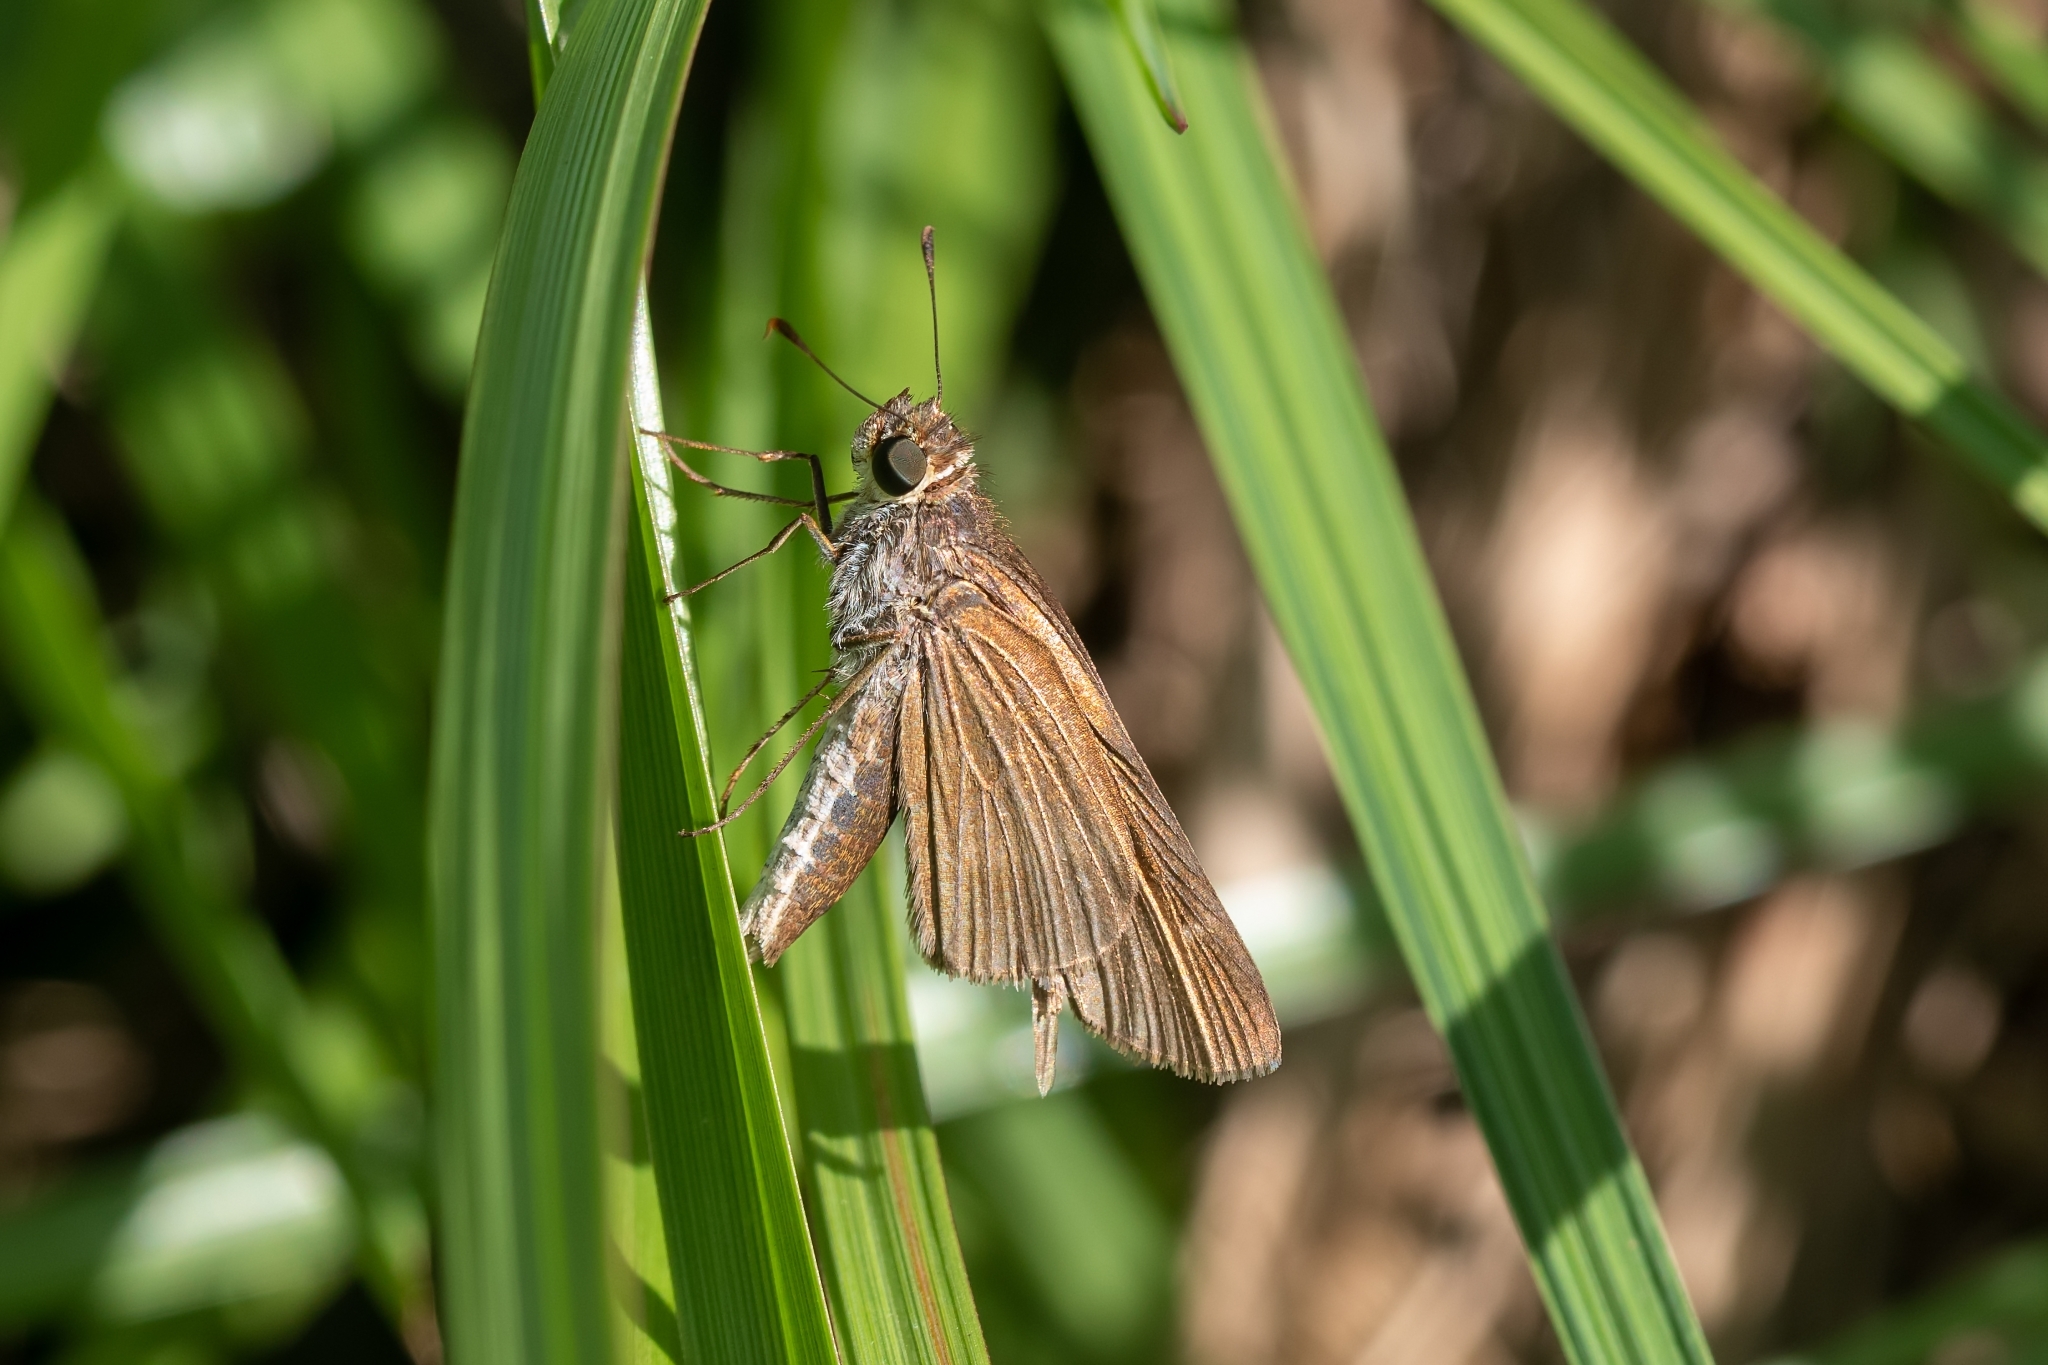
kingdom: Animalia
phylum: Arthropoda
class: Insecta
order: Lepidoptera
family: Hesperiidae
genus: Panoquina
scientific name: Panoquina ocola
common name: Ocola skipper
